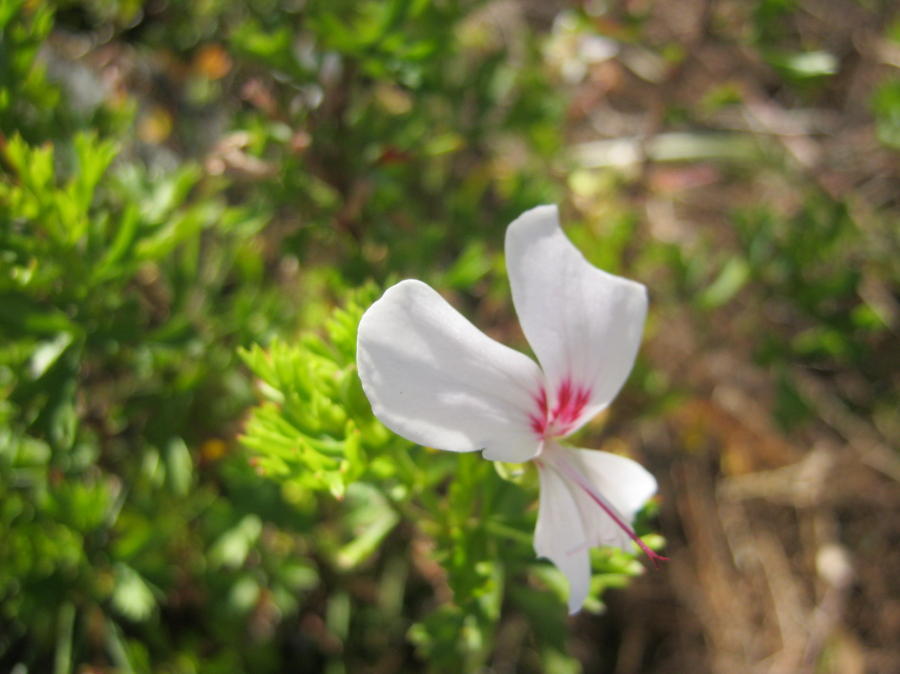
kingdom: Plantae
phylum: Tracheophyta
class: Magnoliopsida
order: Geraniales
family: Geraniaceae
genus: Pelargonium
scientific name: Pelargonium ternatum
